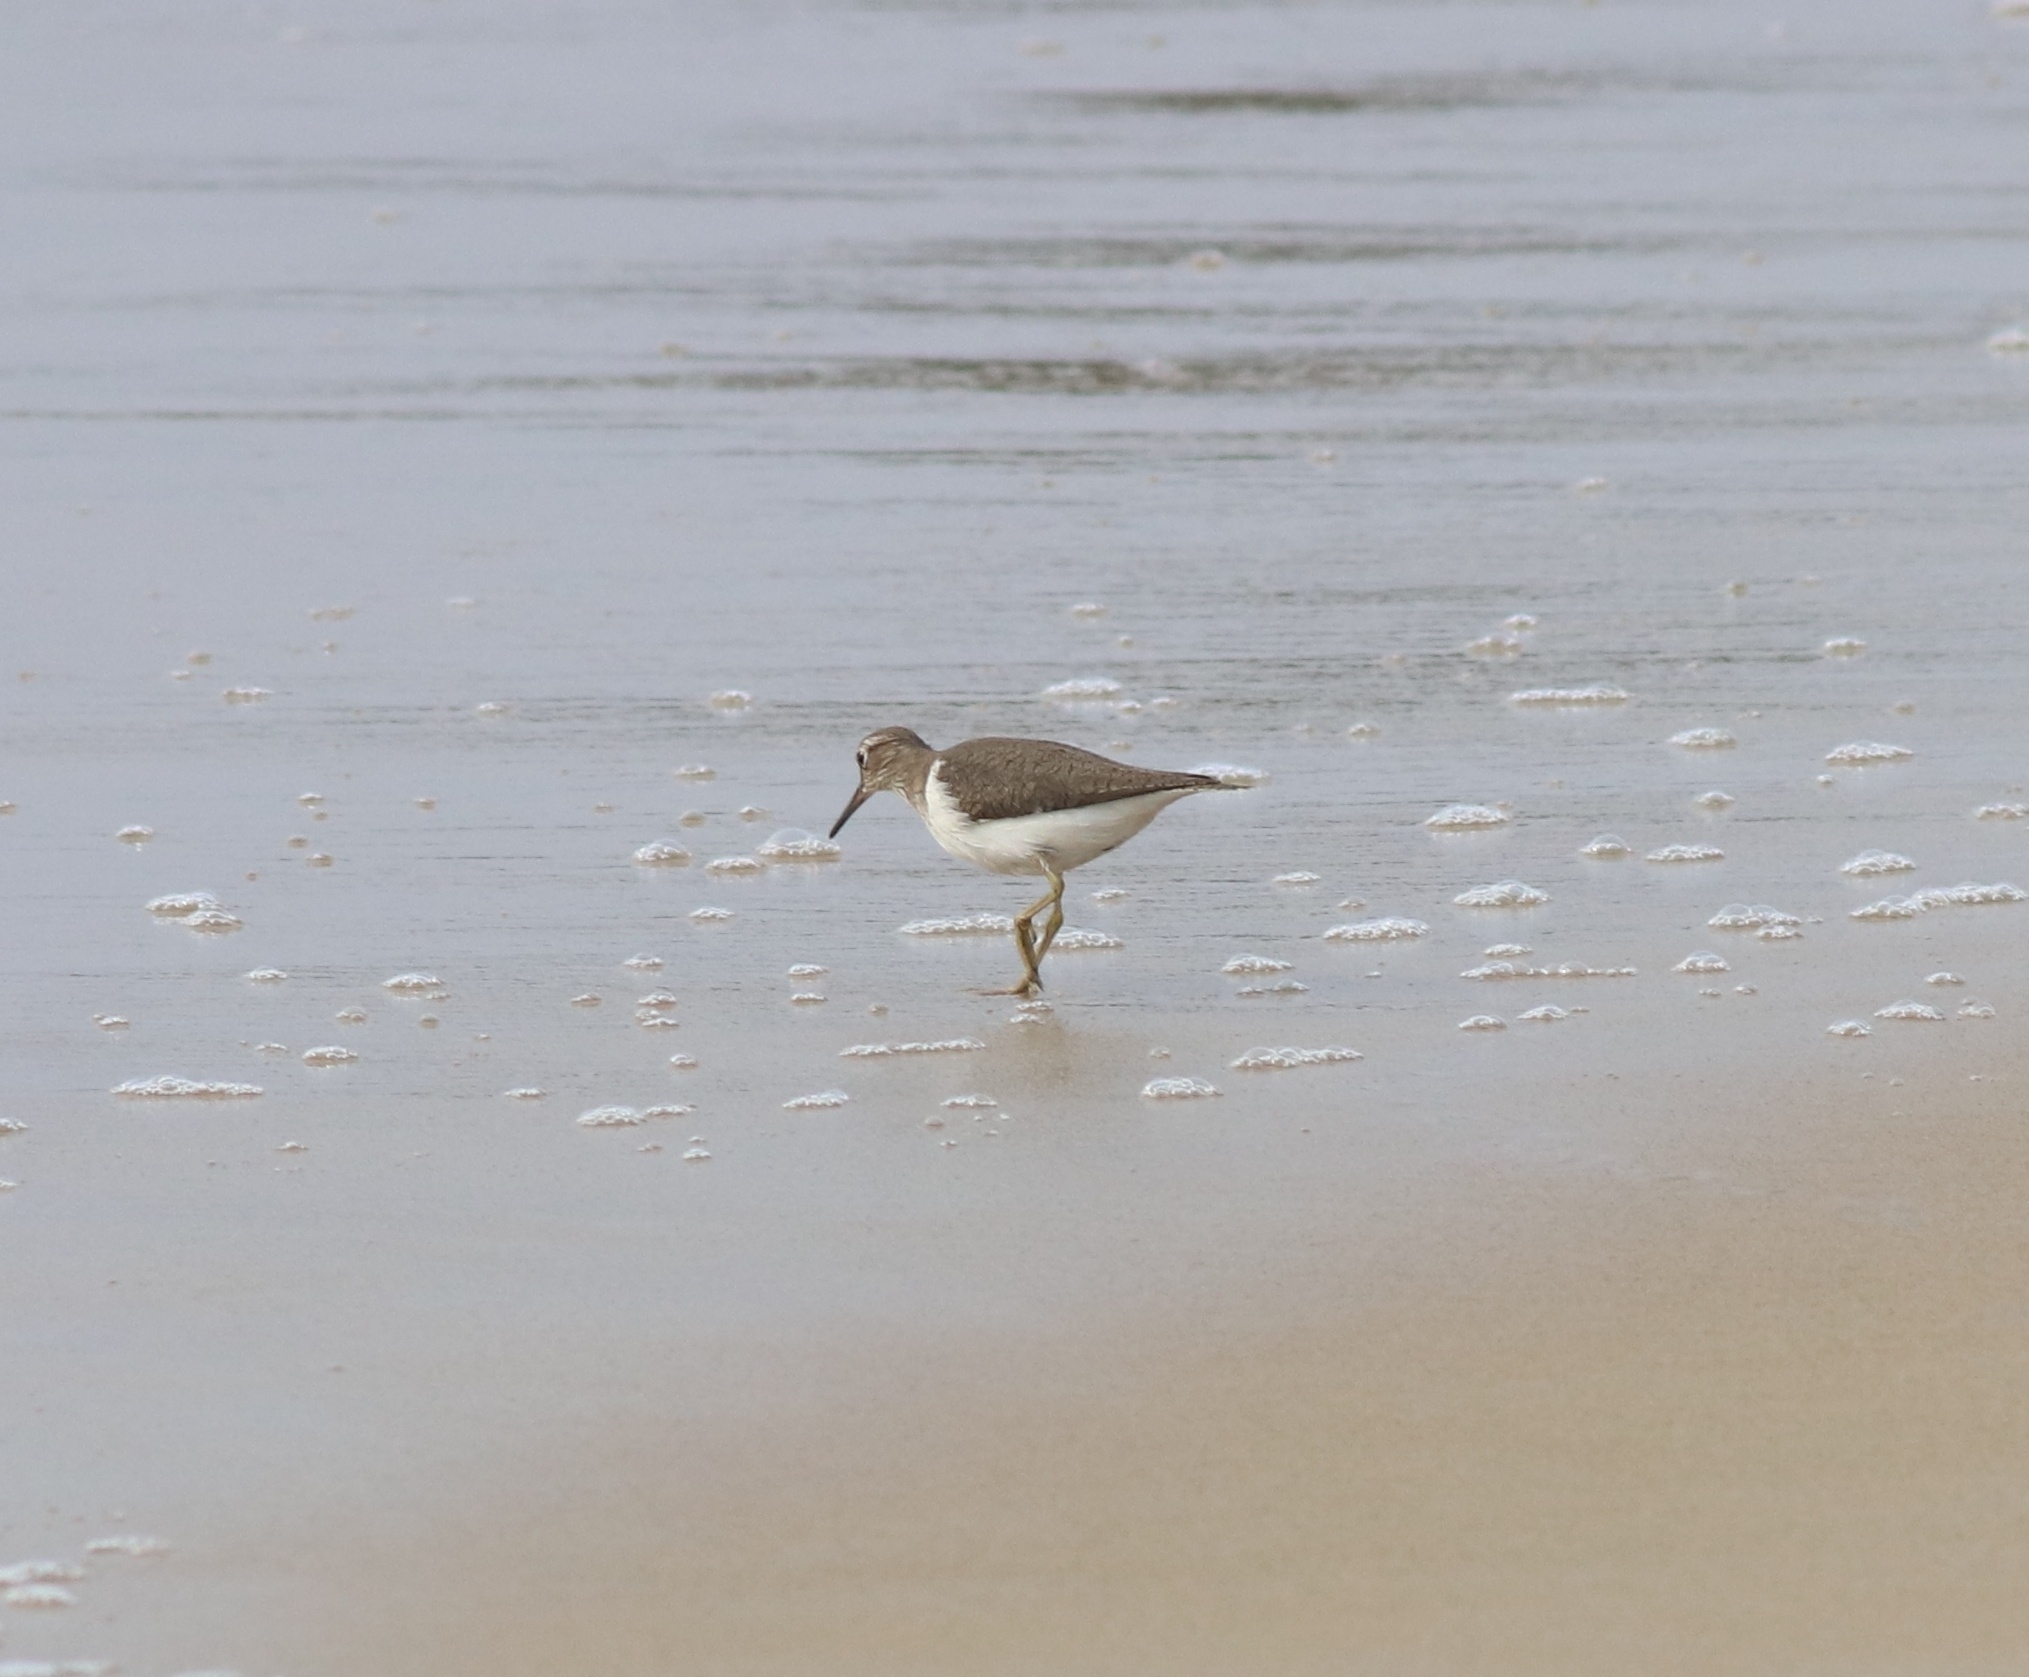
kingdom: Animalia
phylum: Chordata
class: Aves
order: Charadriiformes
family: Scolopacidae
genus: Actitis
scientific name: Actitis hypoleucos
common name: Common sandpiper
